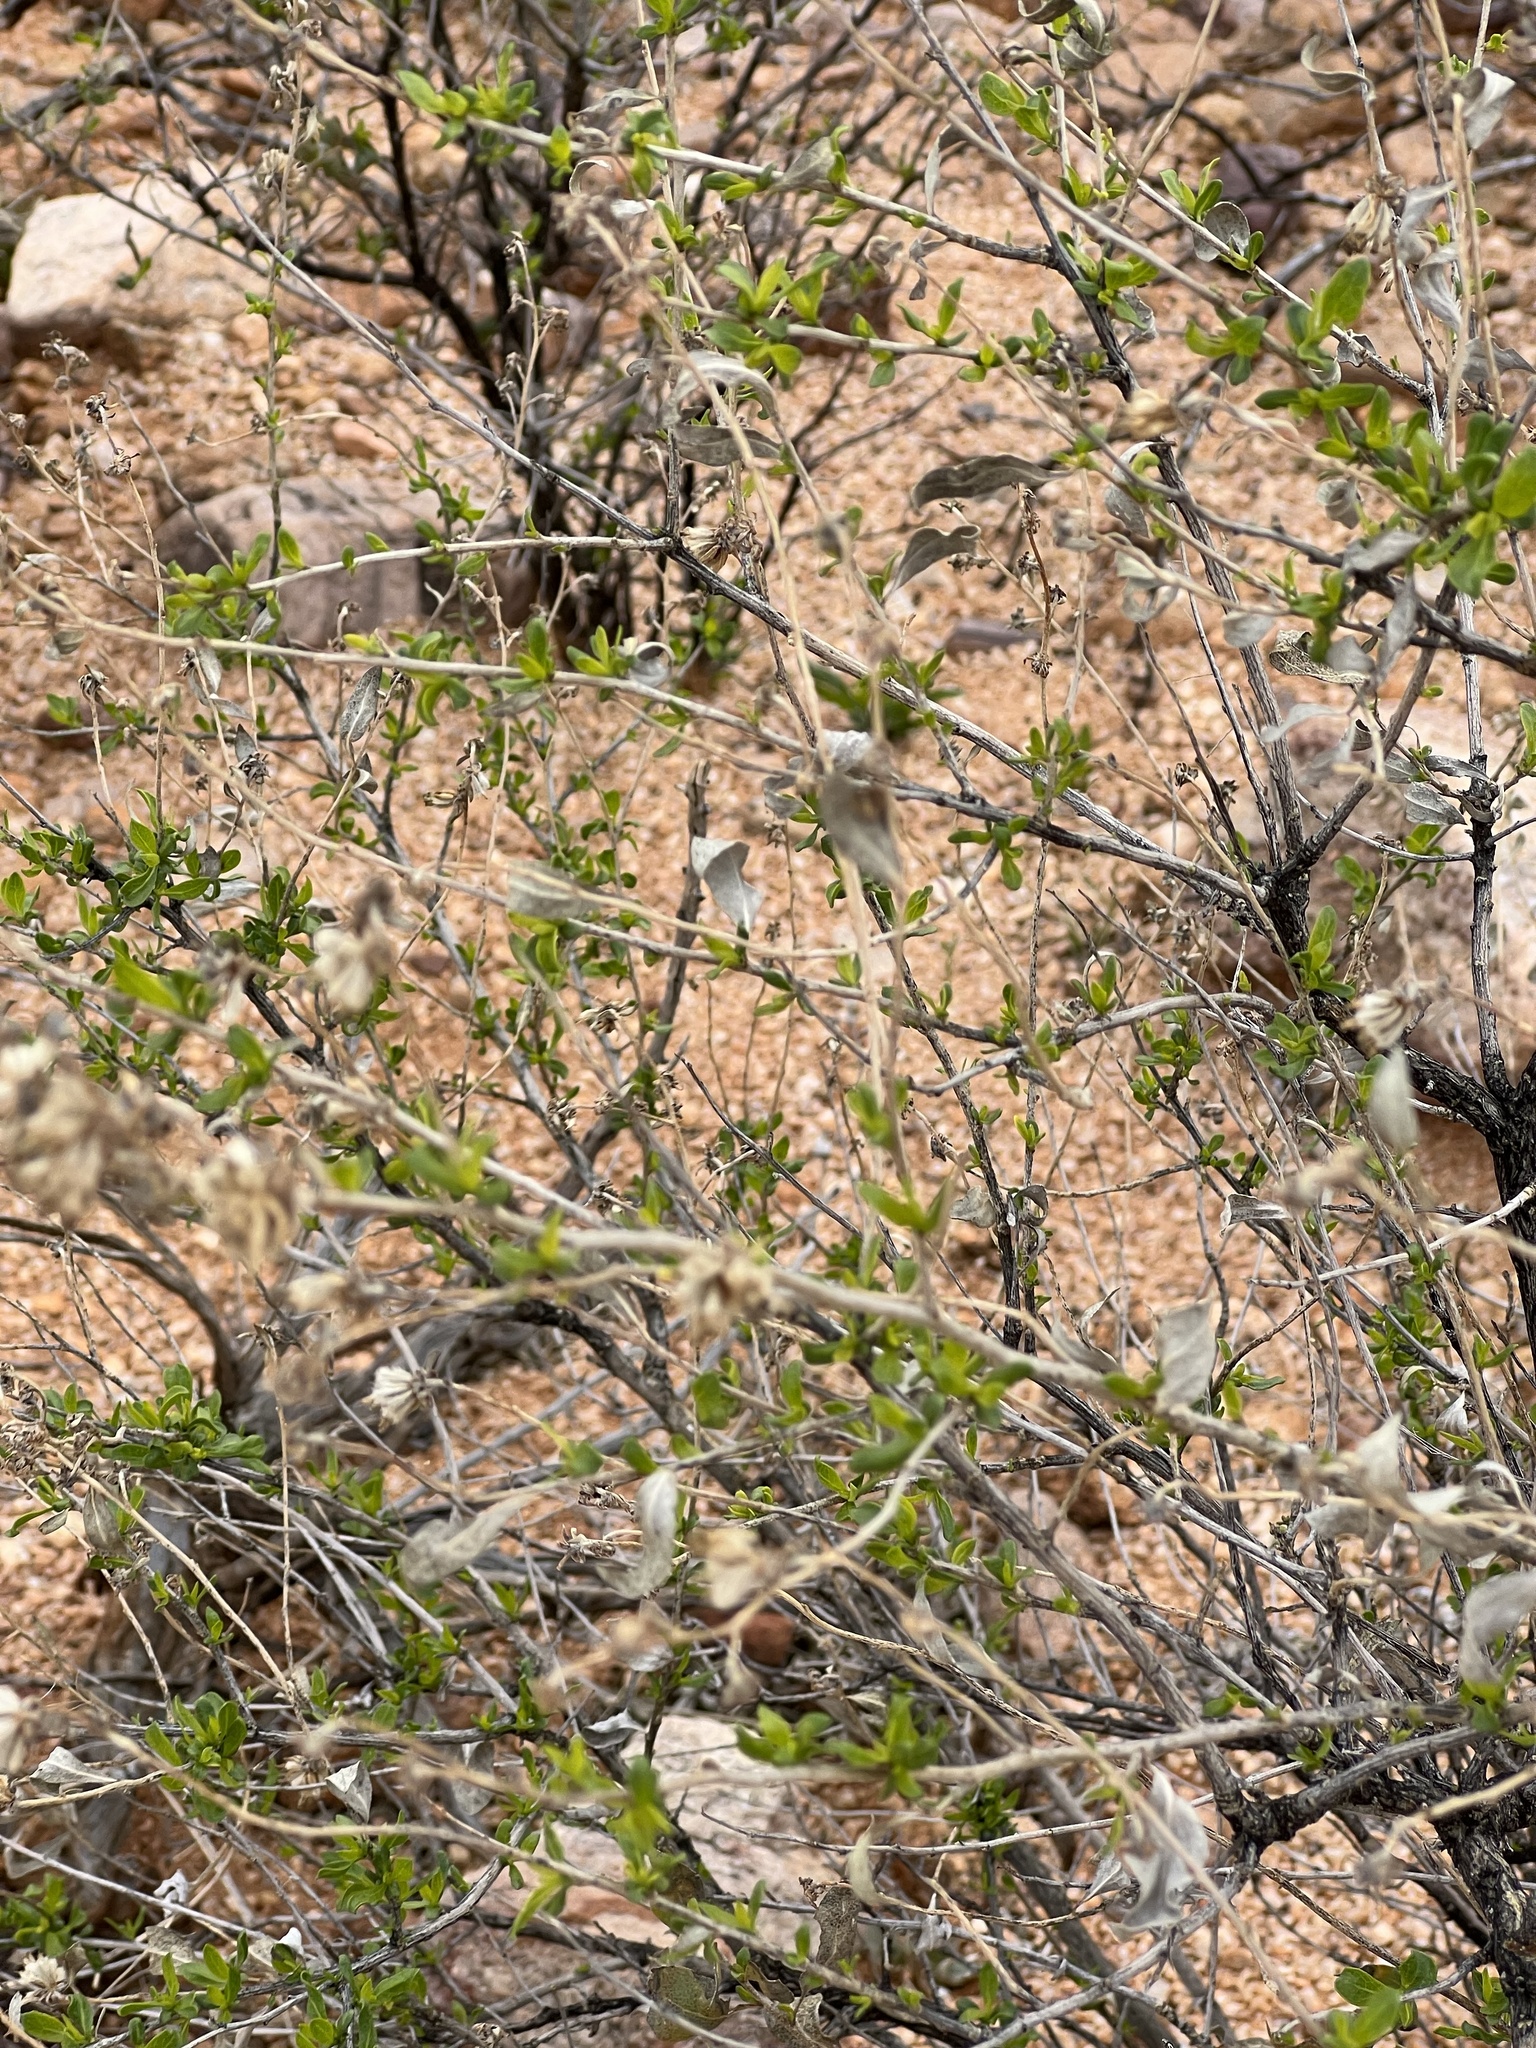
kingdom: Plantae
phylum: Tracheophyta
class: Magnoliopsida
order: Asterales
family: Asteraceae
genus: Flourensia
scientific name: Flourensia cernua
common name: Varnishbush
